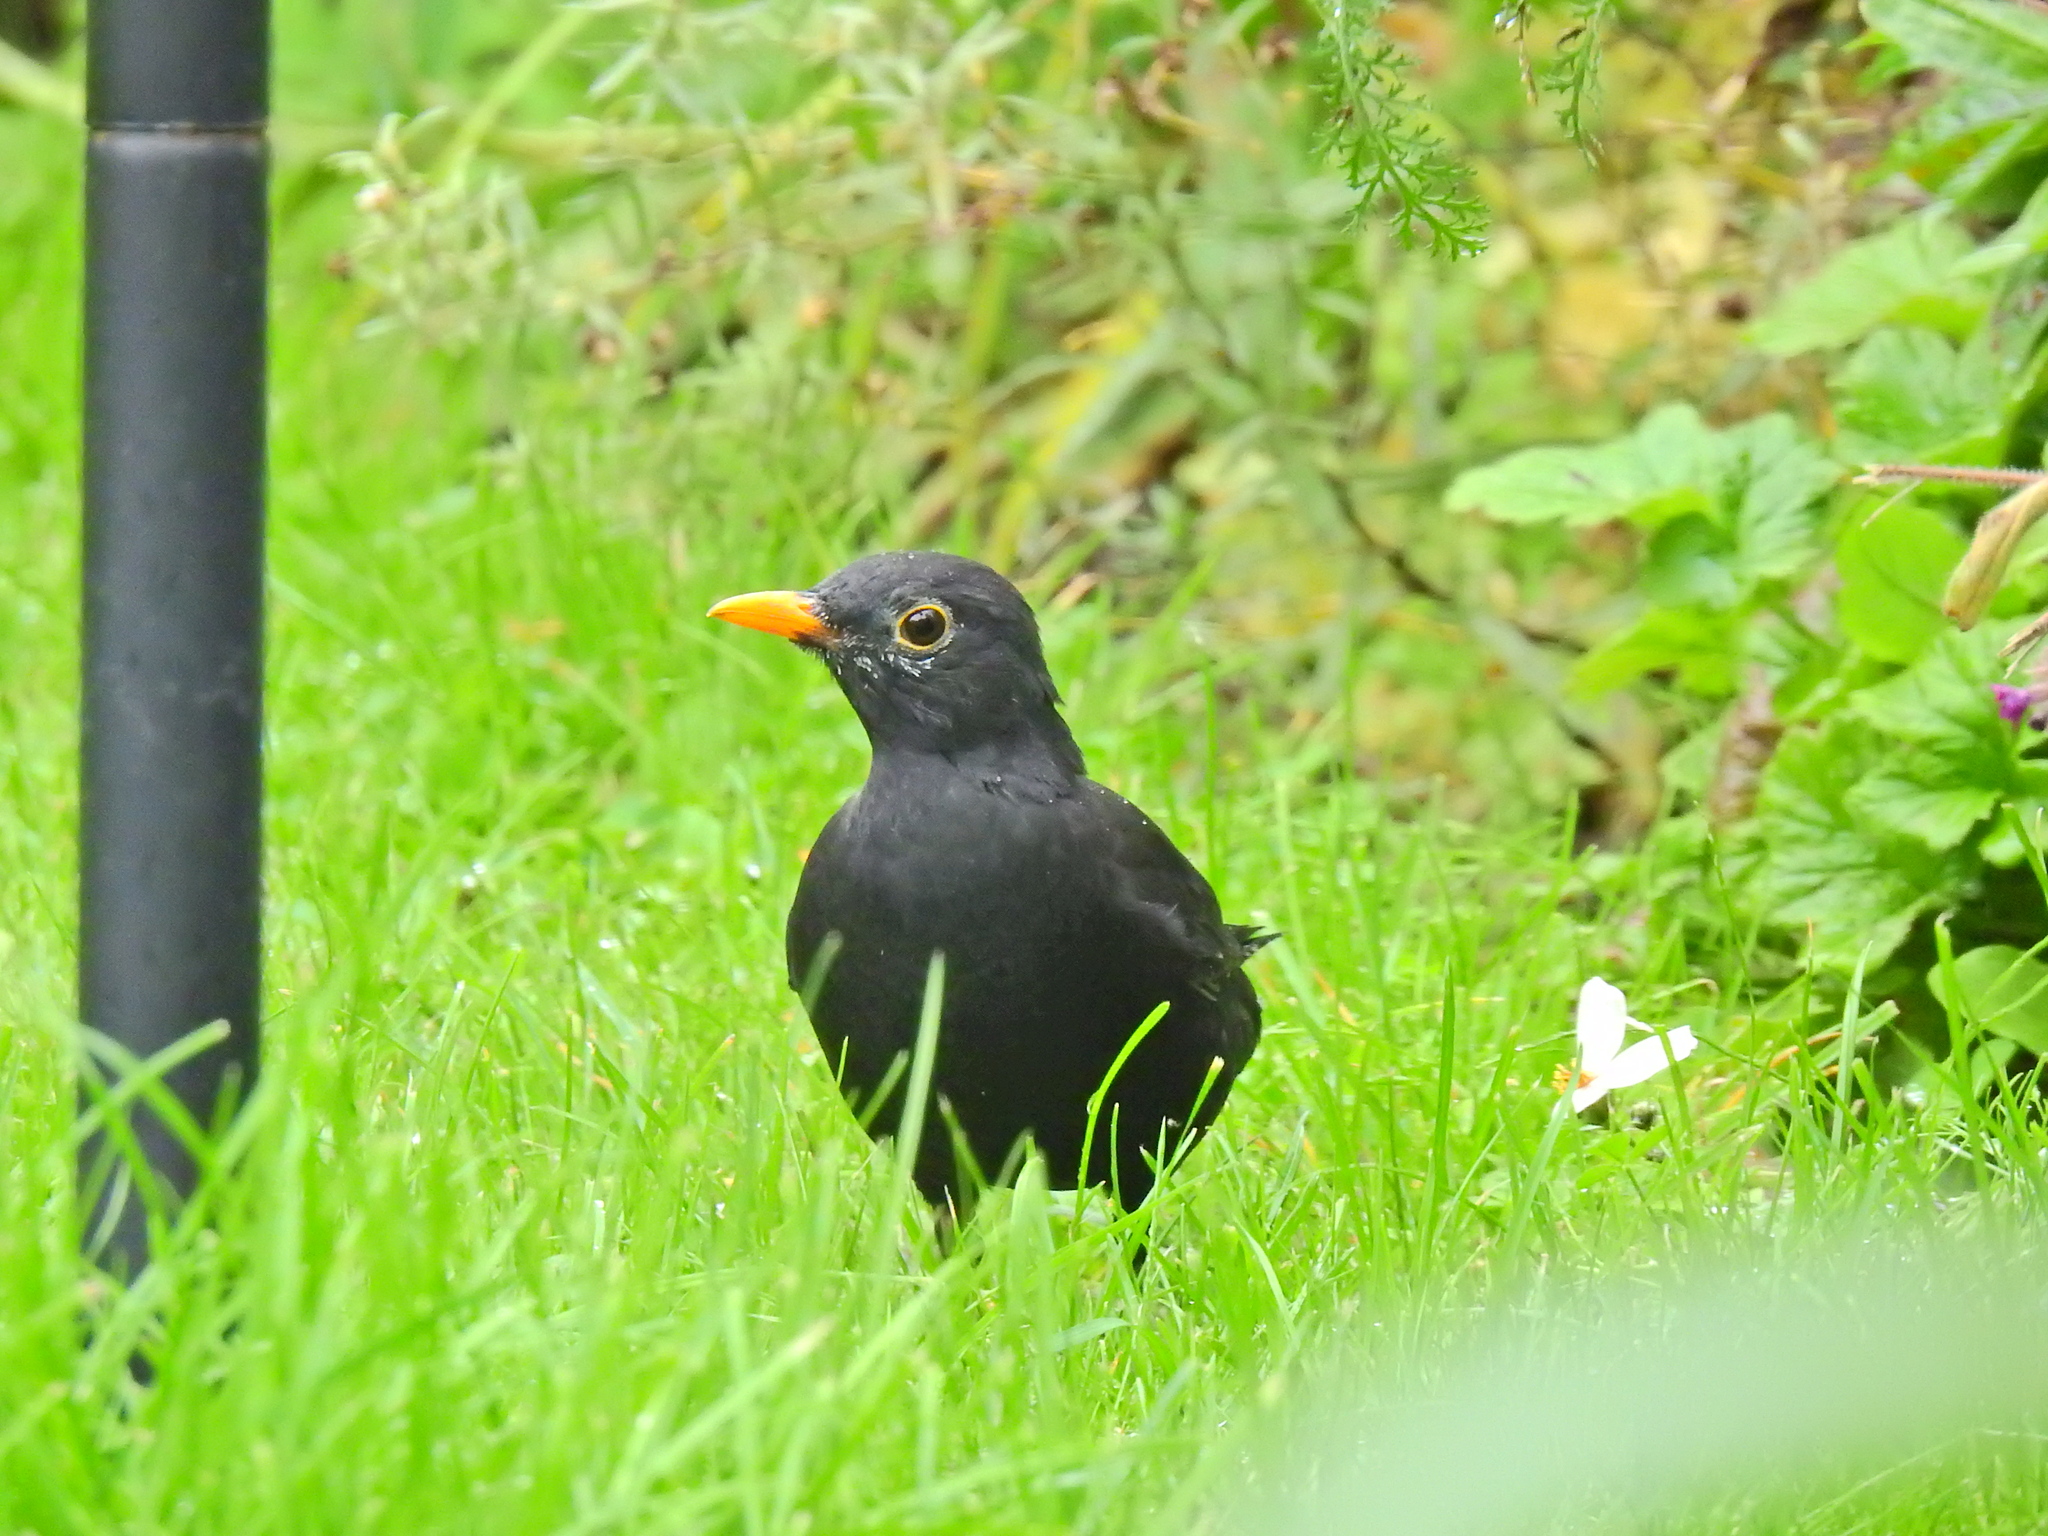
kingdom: Animalia
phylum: Chordata
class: Aves
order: Passeriformes
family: Turdidae
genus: Turdus
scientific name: Turdus merula
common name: Common blackbird
